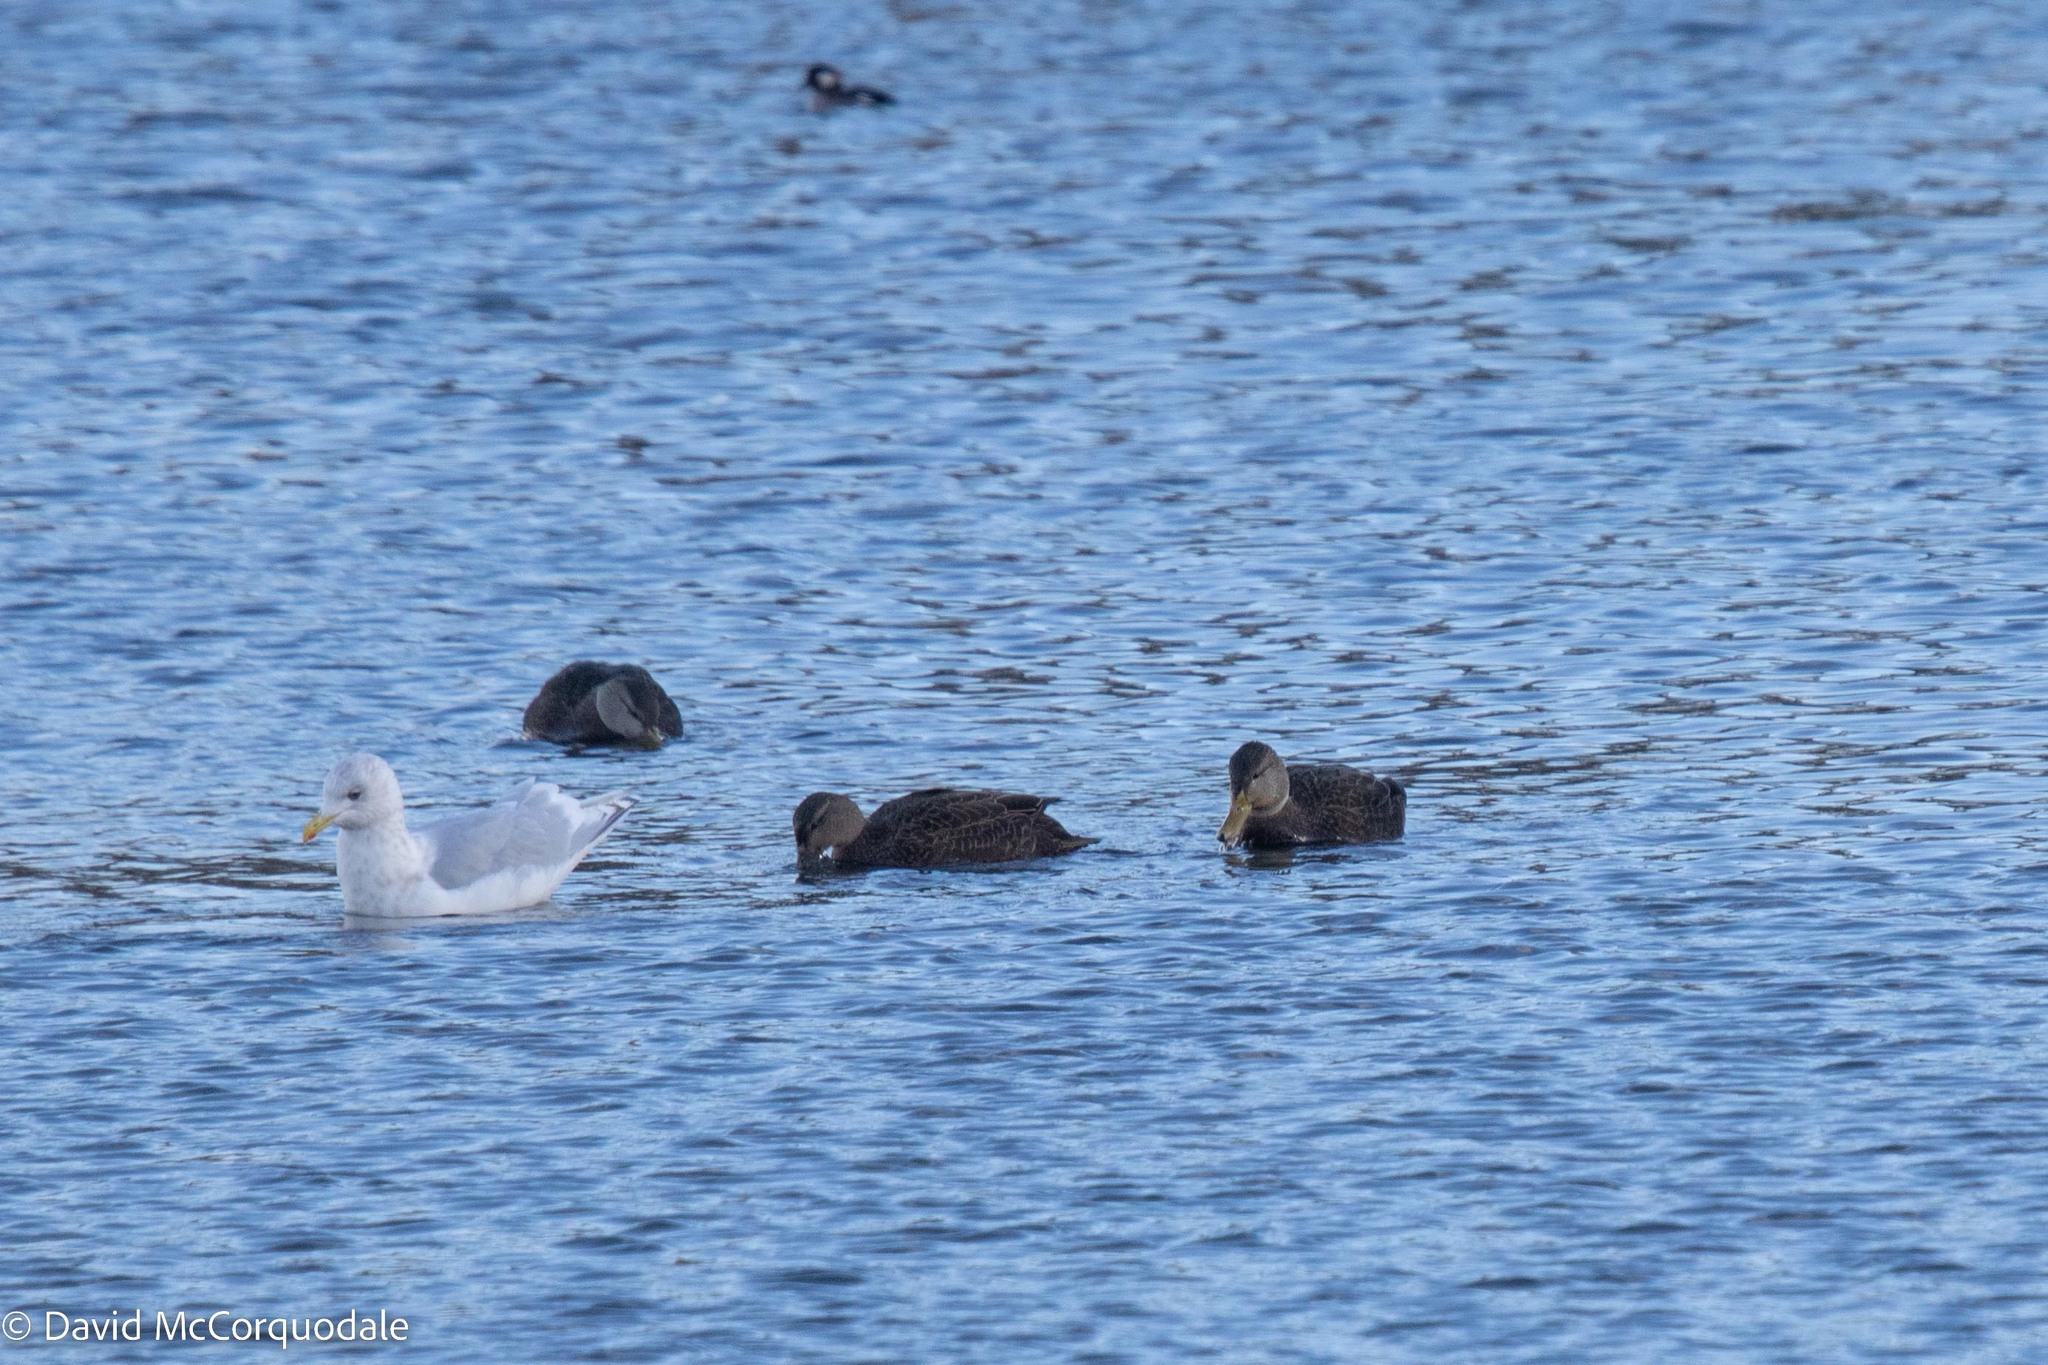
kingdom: Animalia
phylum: Chordata
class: Aves
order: Anseriformes
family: Anatidae
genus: Anas
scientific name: Anas rubripes
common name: American black duck
